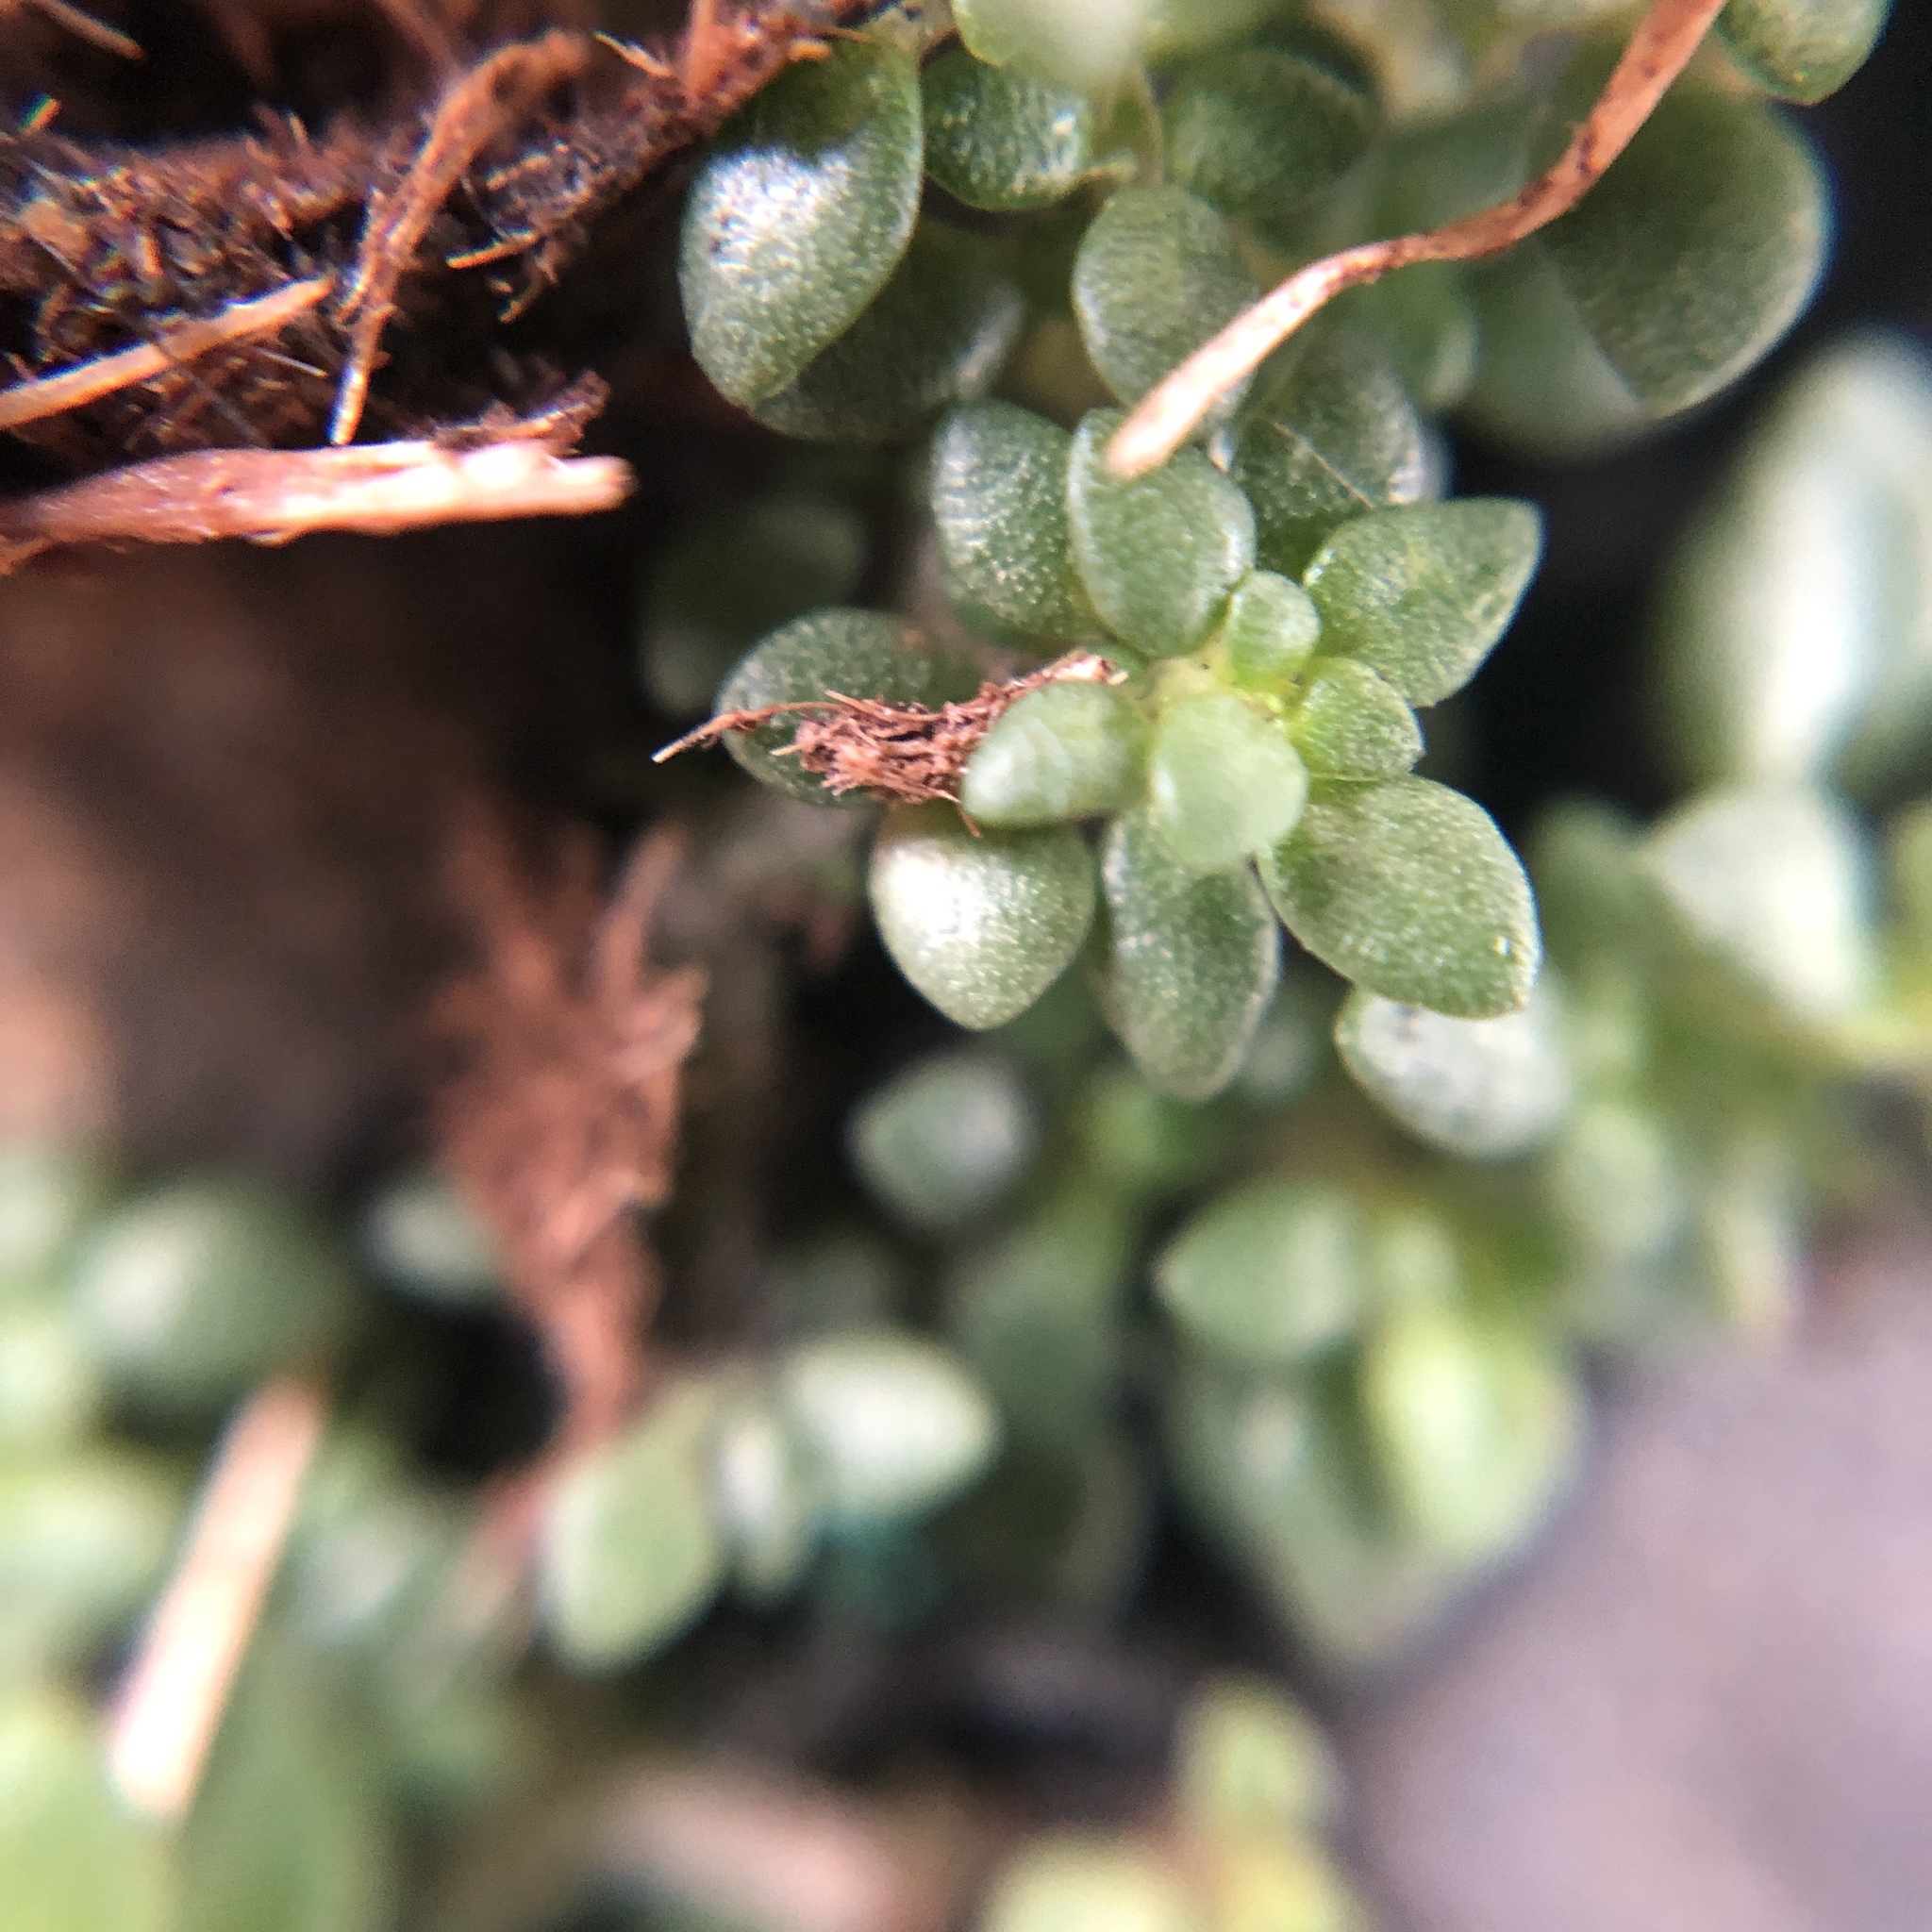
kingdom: Plantae
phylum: Tracheophyta
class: Magnoliopsida
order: Rosales
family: Urticaceae
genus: Pilea
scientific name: Pilea microphylla
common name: Artillery-plant
